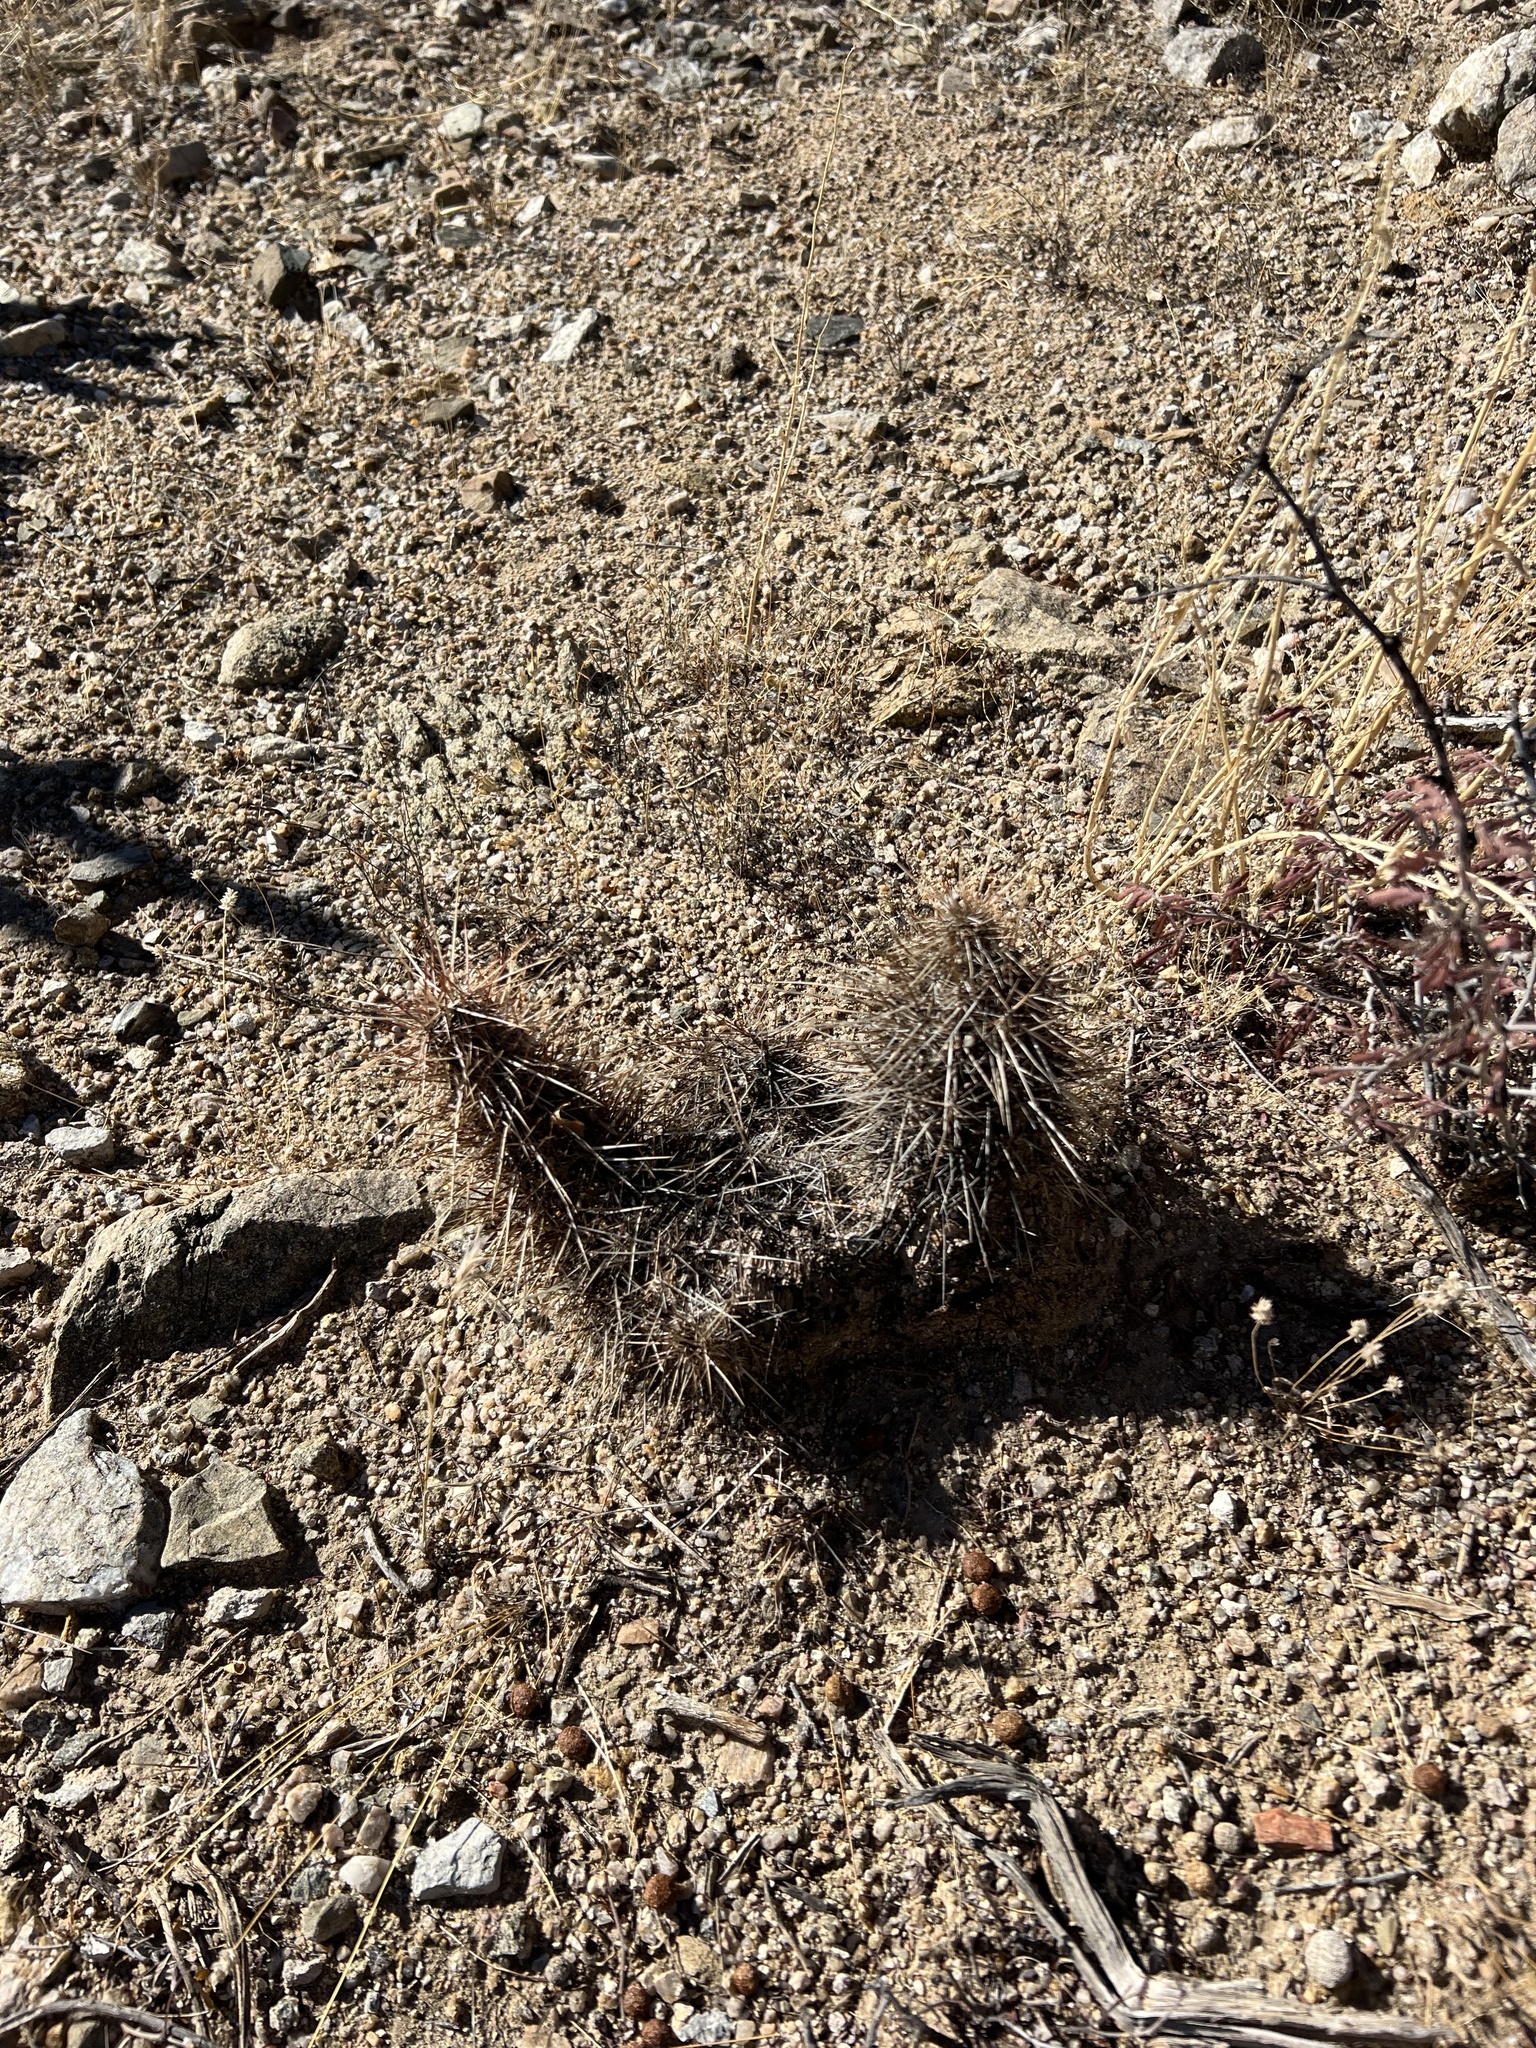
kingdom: Plantae
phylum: Tracheophyta
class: Magnoliopsida
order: Caryophyllales
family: Cactaceae
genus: Echinocereus
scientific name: Echinocereus engelmannii
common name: Engelmann's hedgehog cactus
